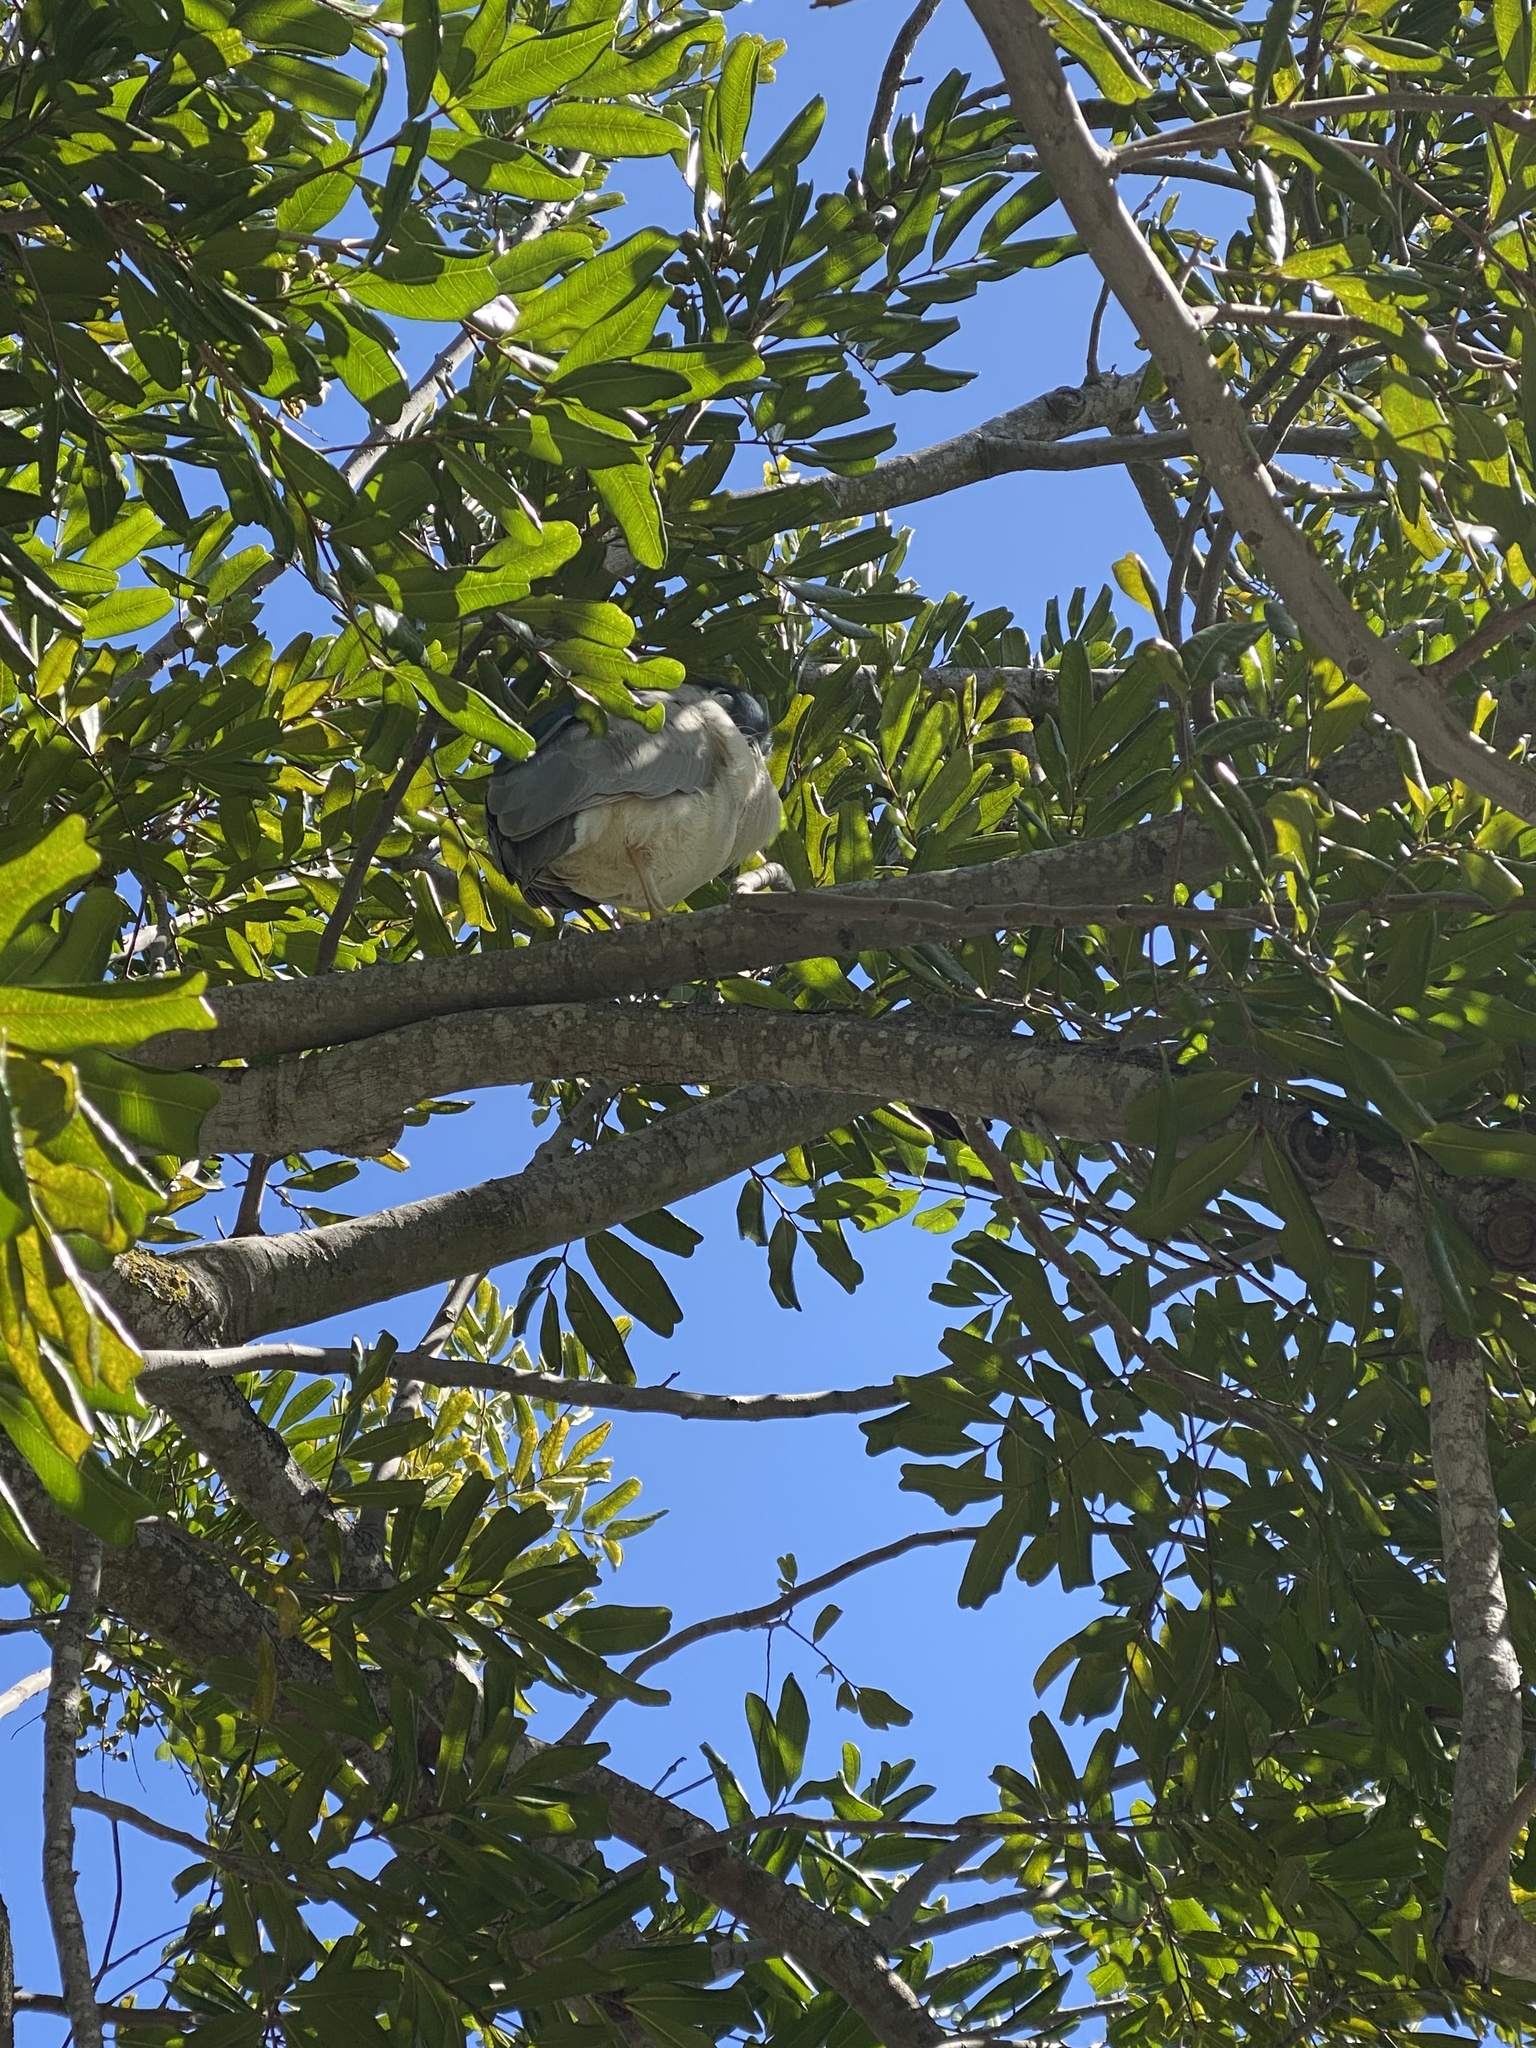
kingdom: Animalia
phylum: Chordata
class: Aves
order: Pelecaniformes
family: Ardeidae
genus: Nycticorax
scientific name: Nycticorax nycticorax
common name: Black-crowned night heron
